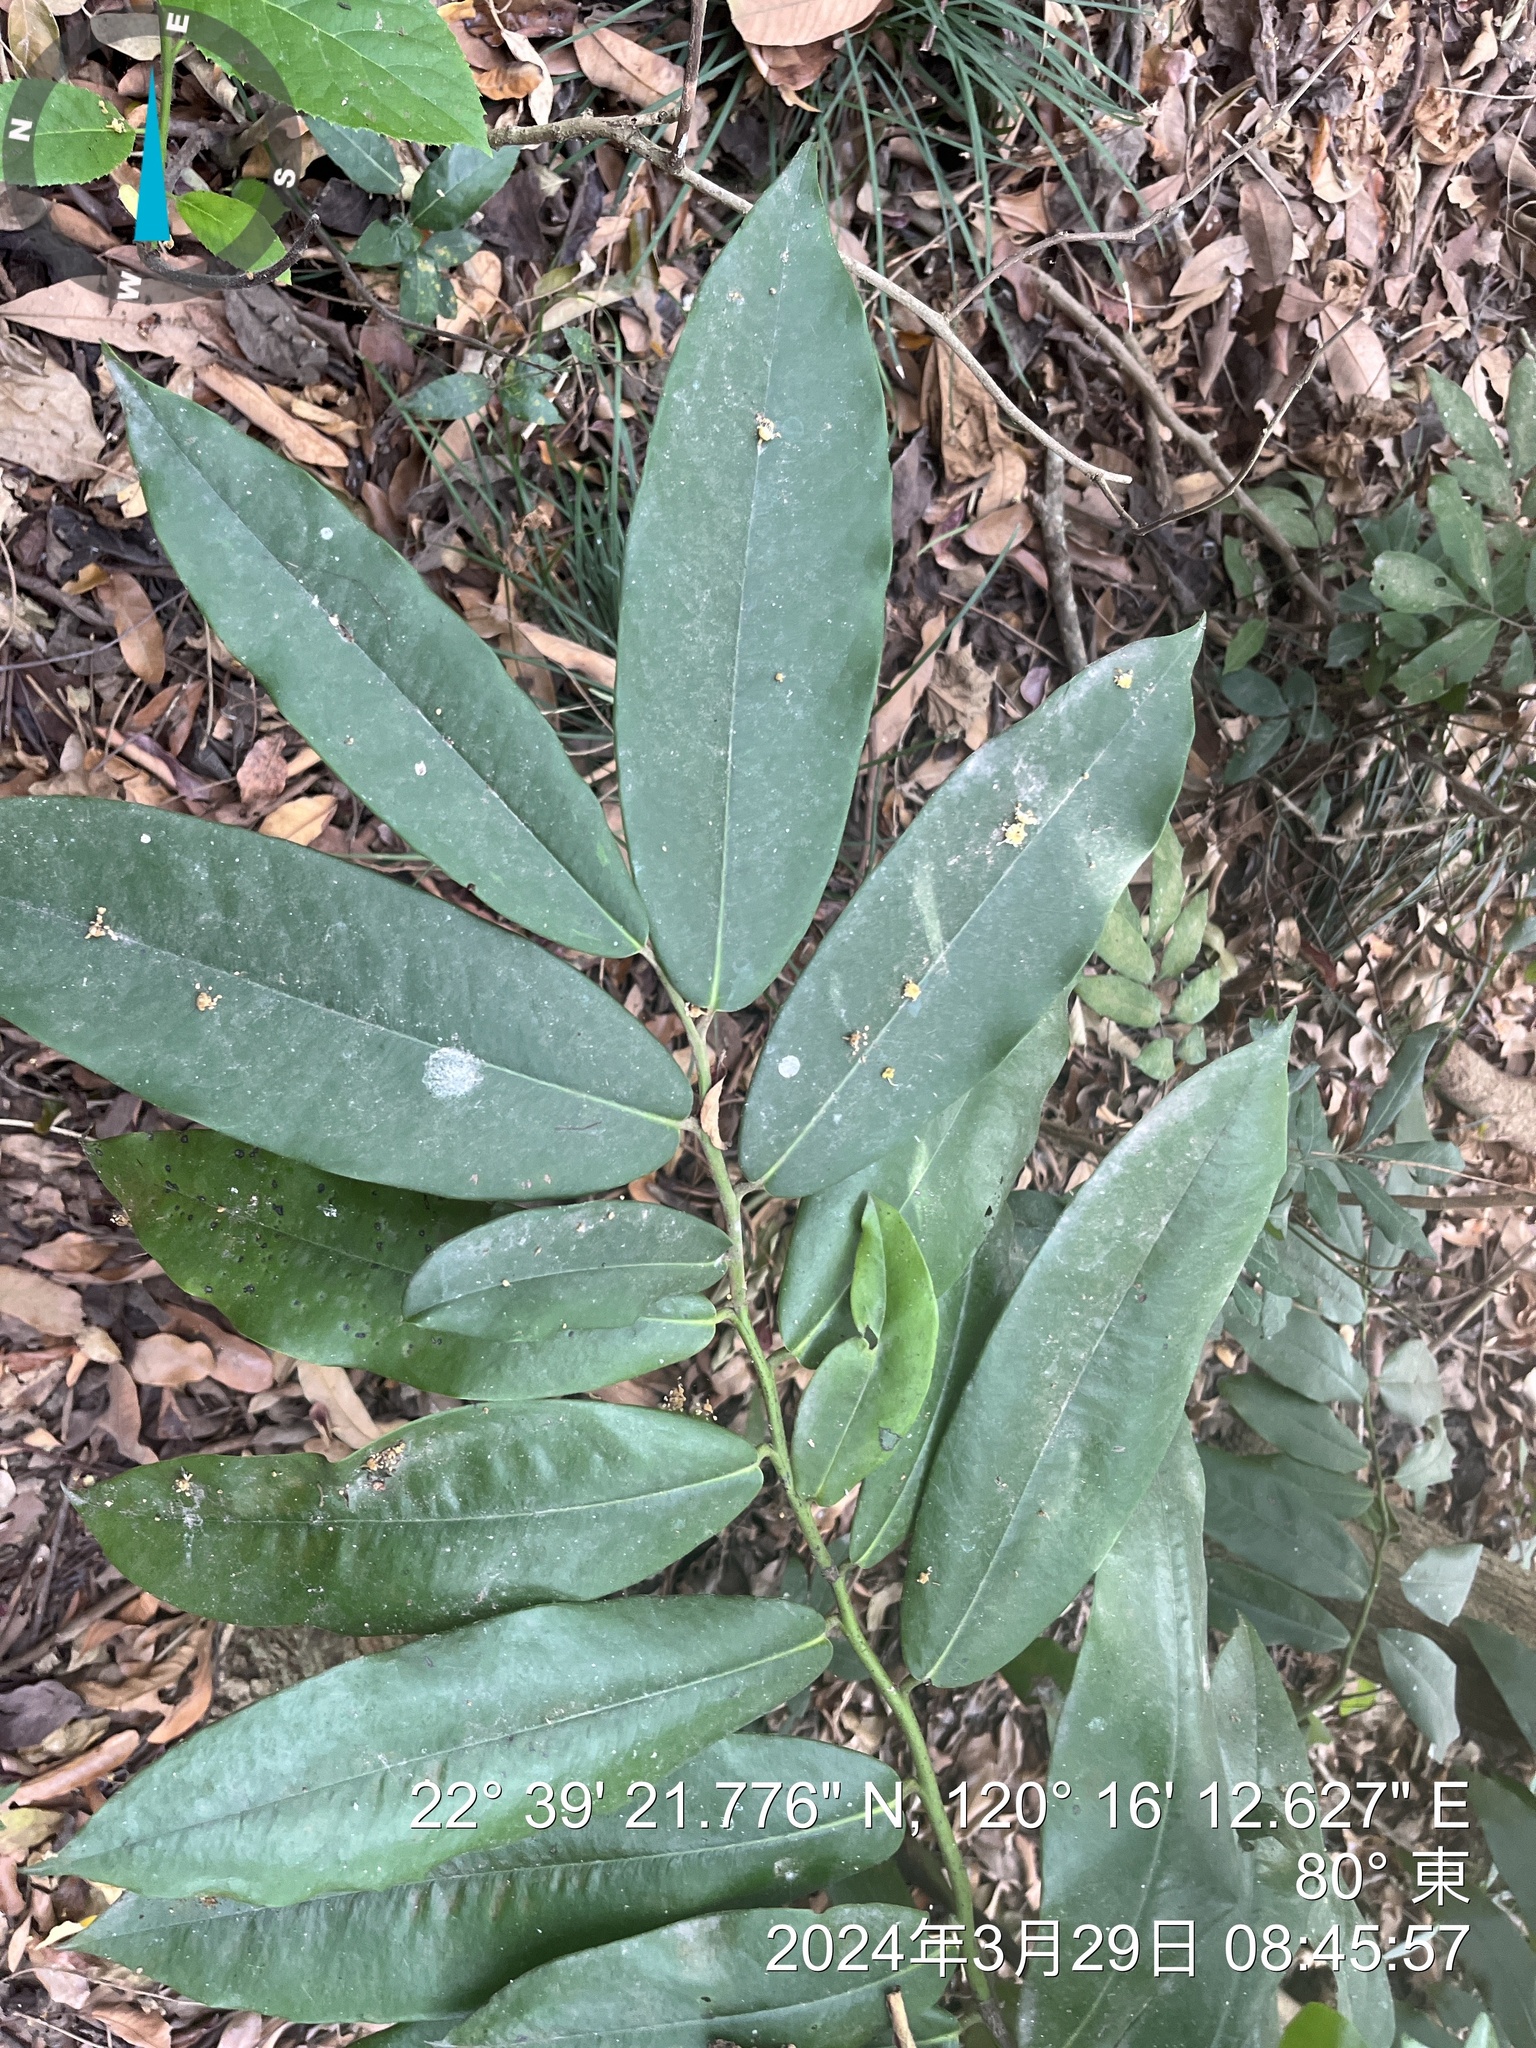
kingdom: Plantae
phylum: Tracheophyta
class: Magnoliopsida
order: Ericales
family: Ebenaceae
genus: Diospyros
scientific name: Diospyros blancoi
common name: Mabola-tree
